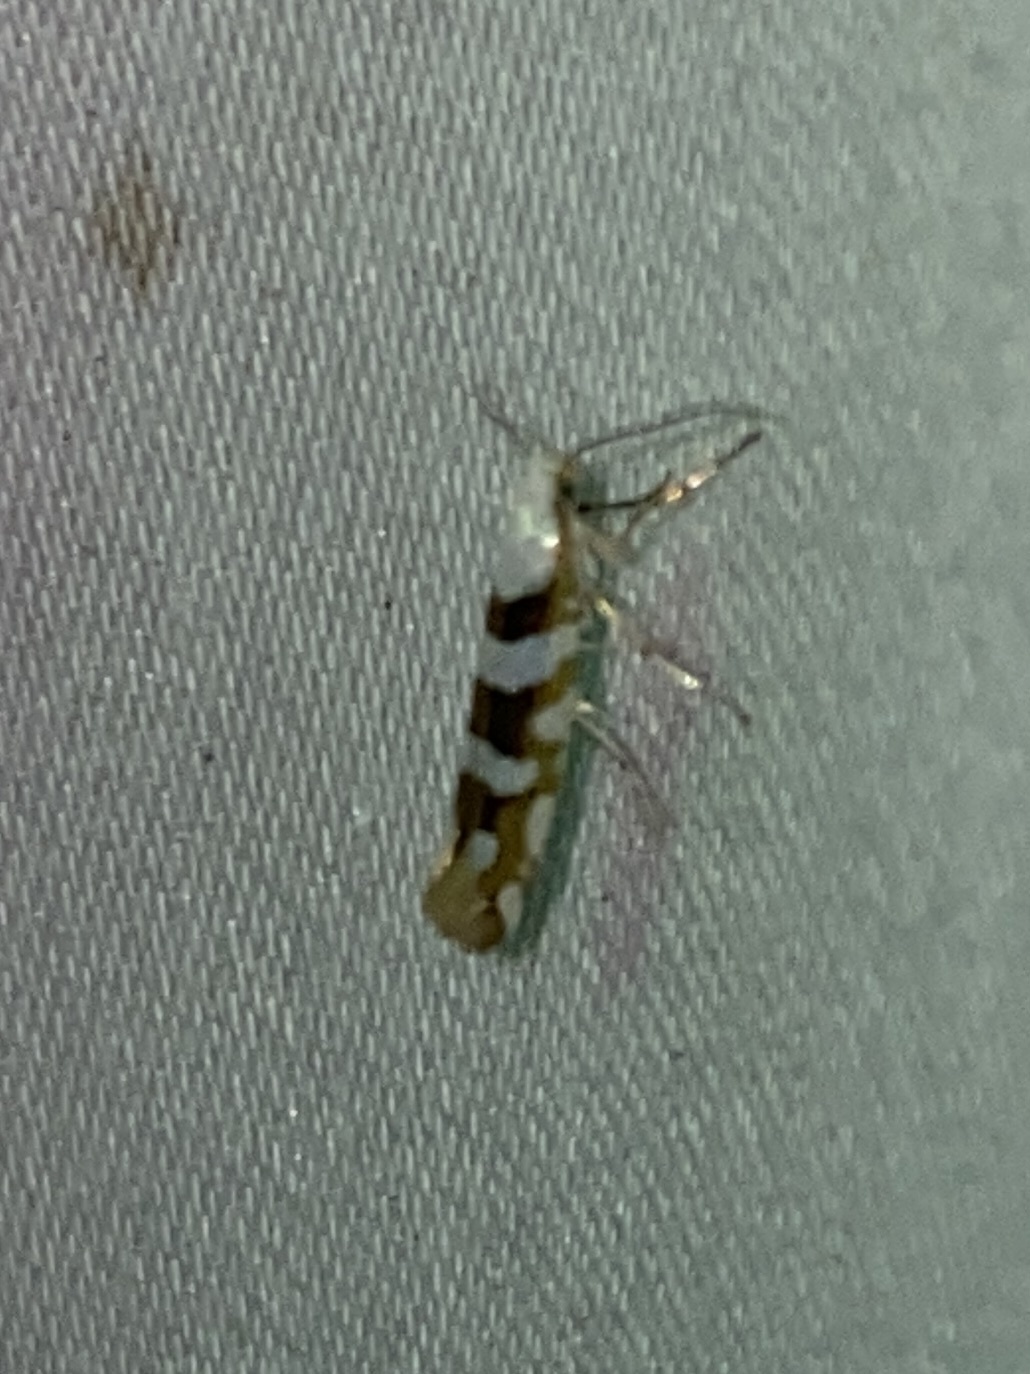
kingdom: Animalia
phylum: Arthropoda
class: Insecta
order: Lepidoptera
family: Argyresthiidae
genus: Argyresthia
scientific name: Argyresthia calliphanes
